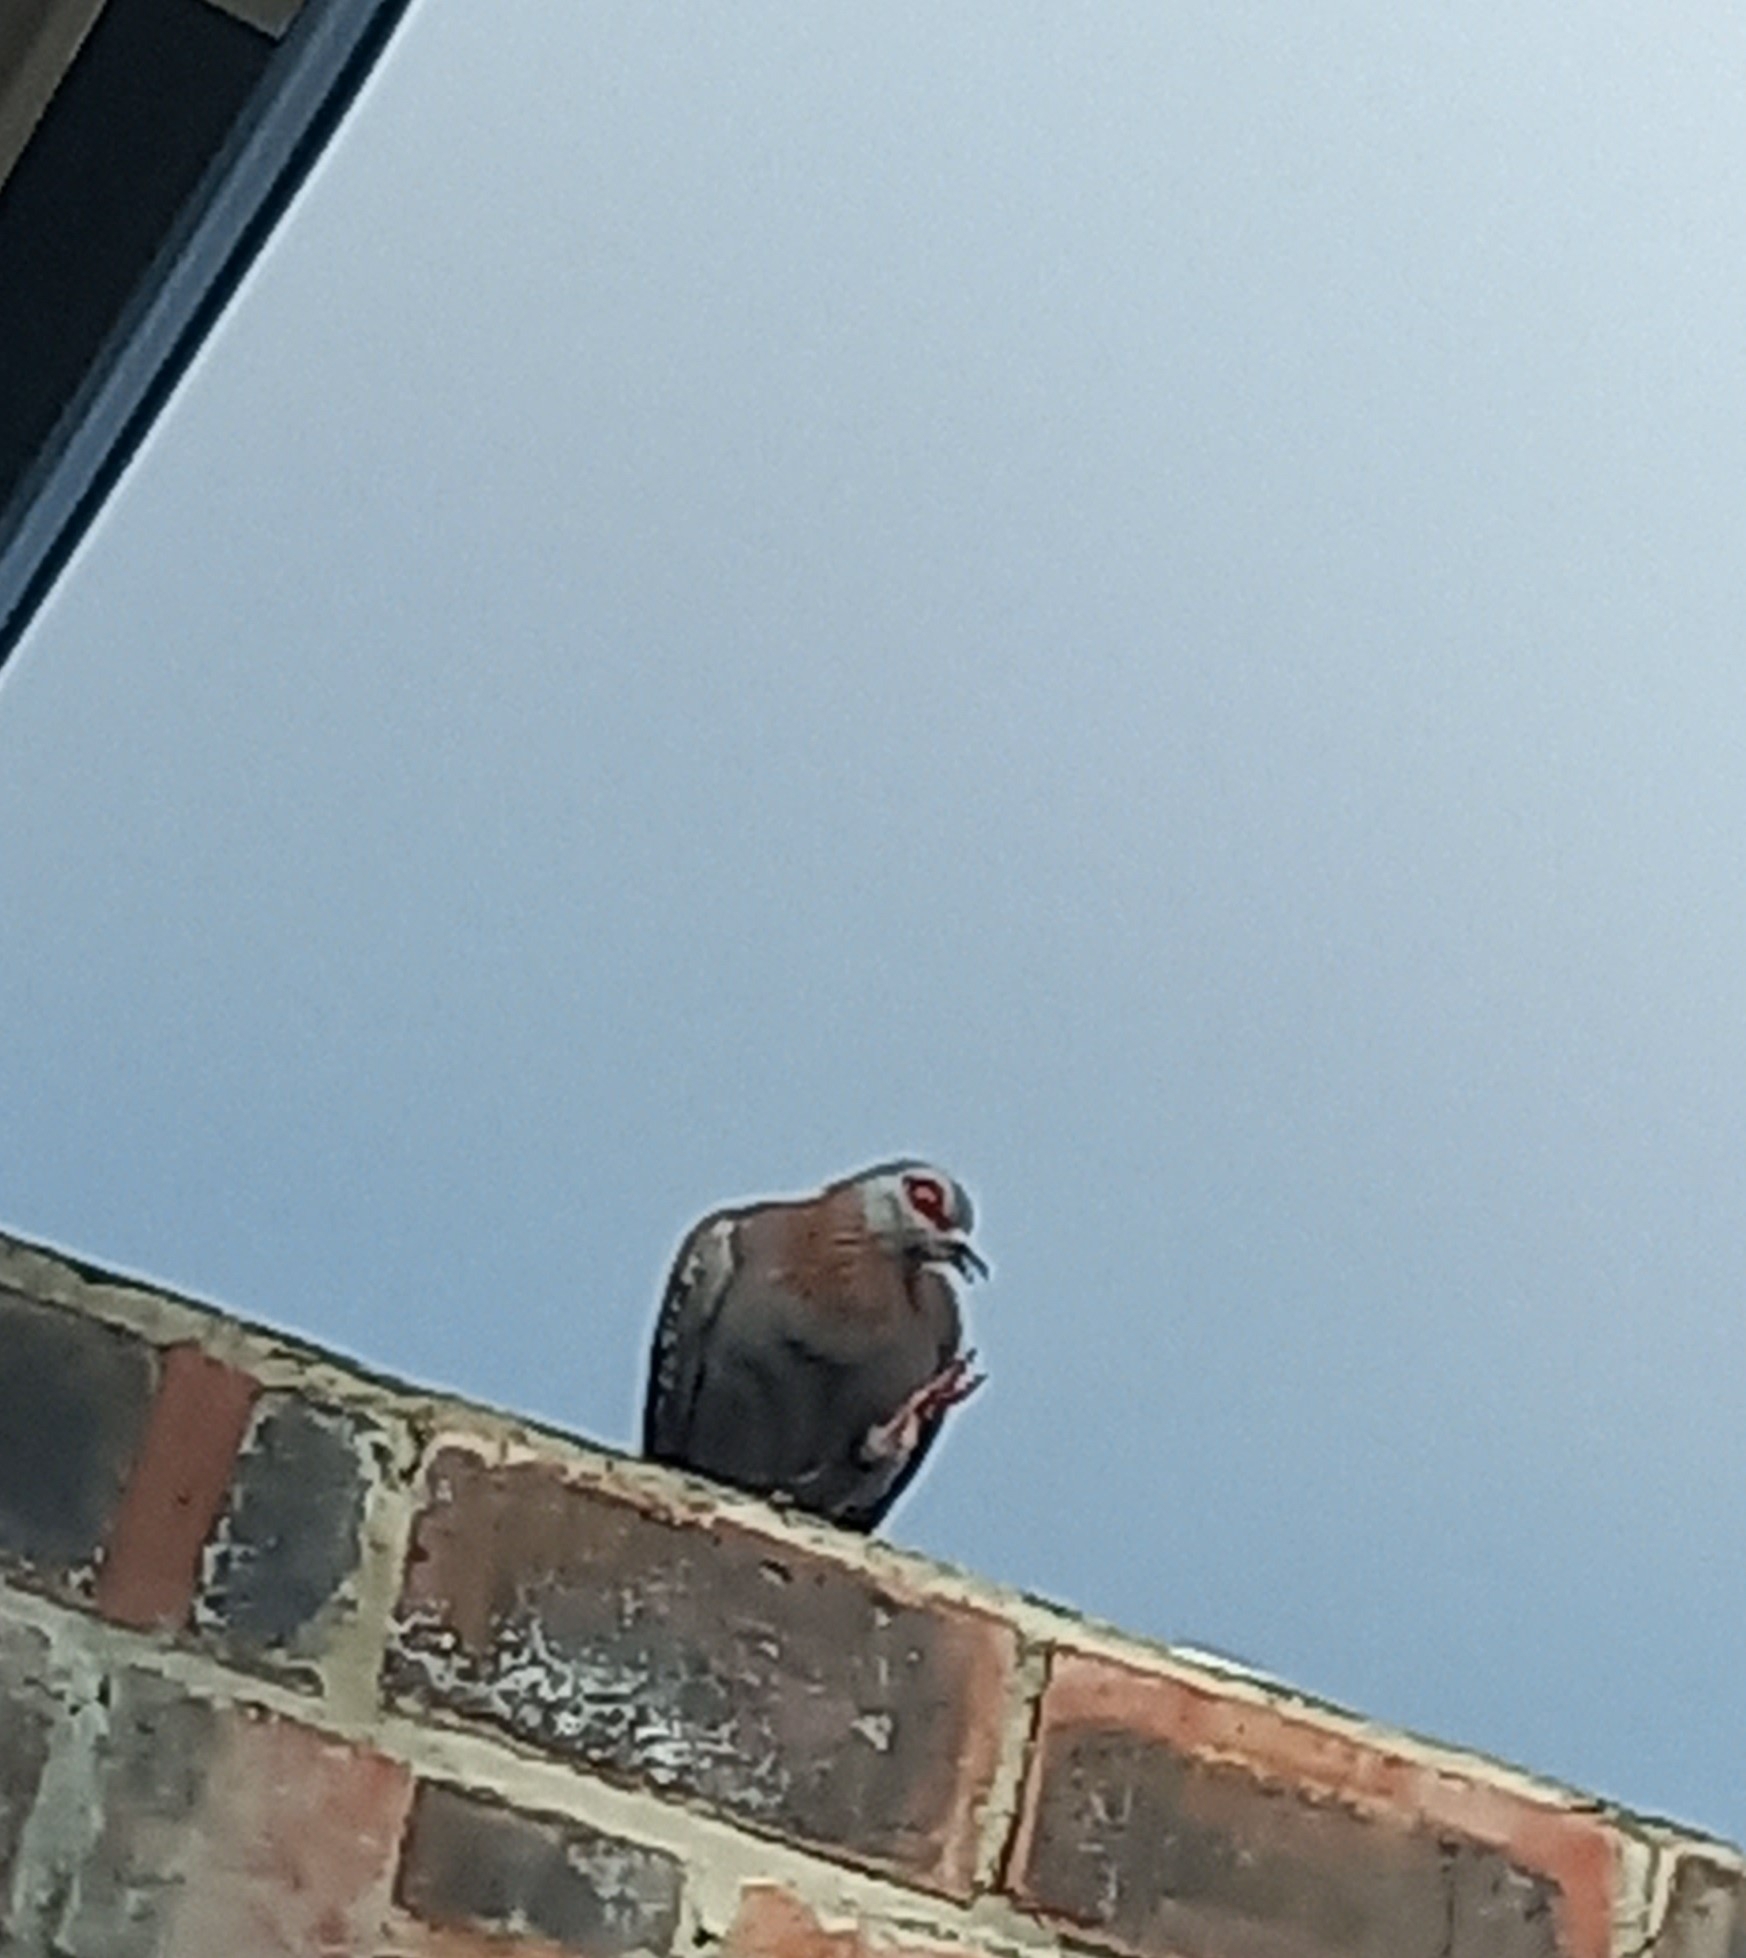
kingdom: Animalia
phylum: Chordata
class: Aves
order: Columbiformes
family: Columbidae
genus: Columba
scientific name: Columba guinea
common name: Speckled pigeon
